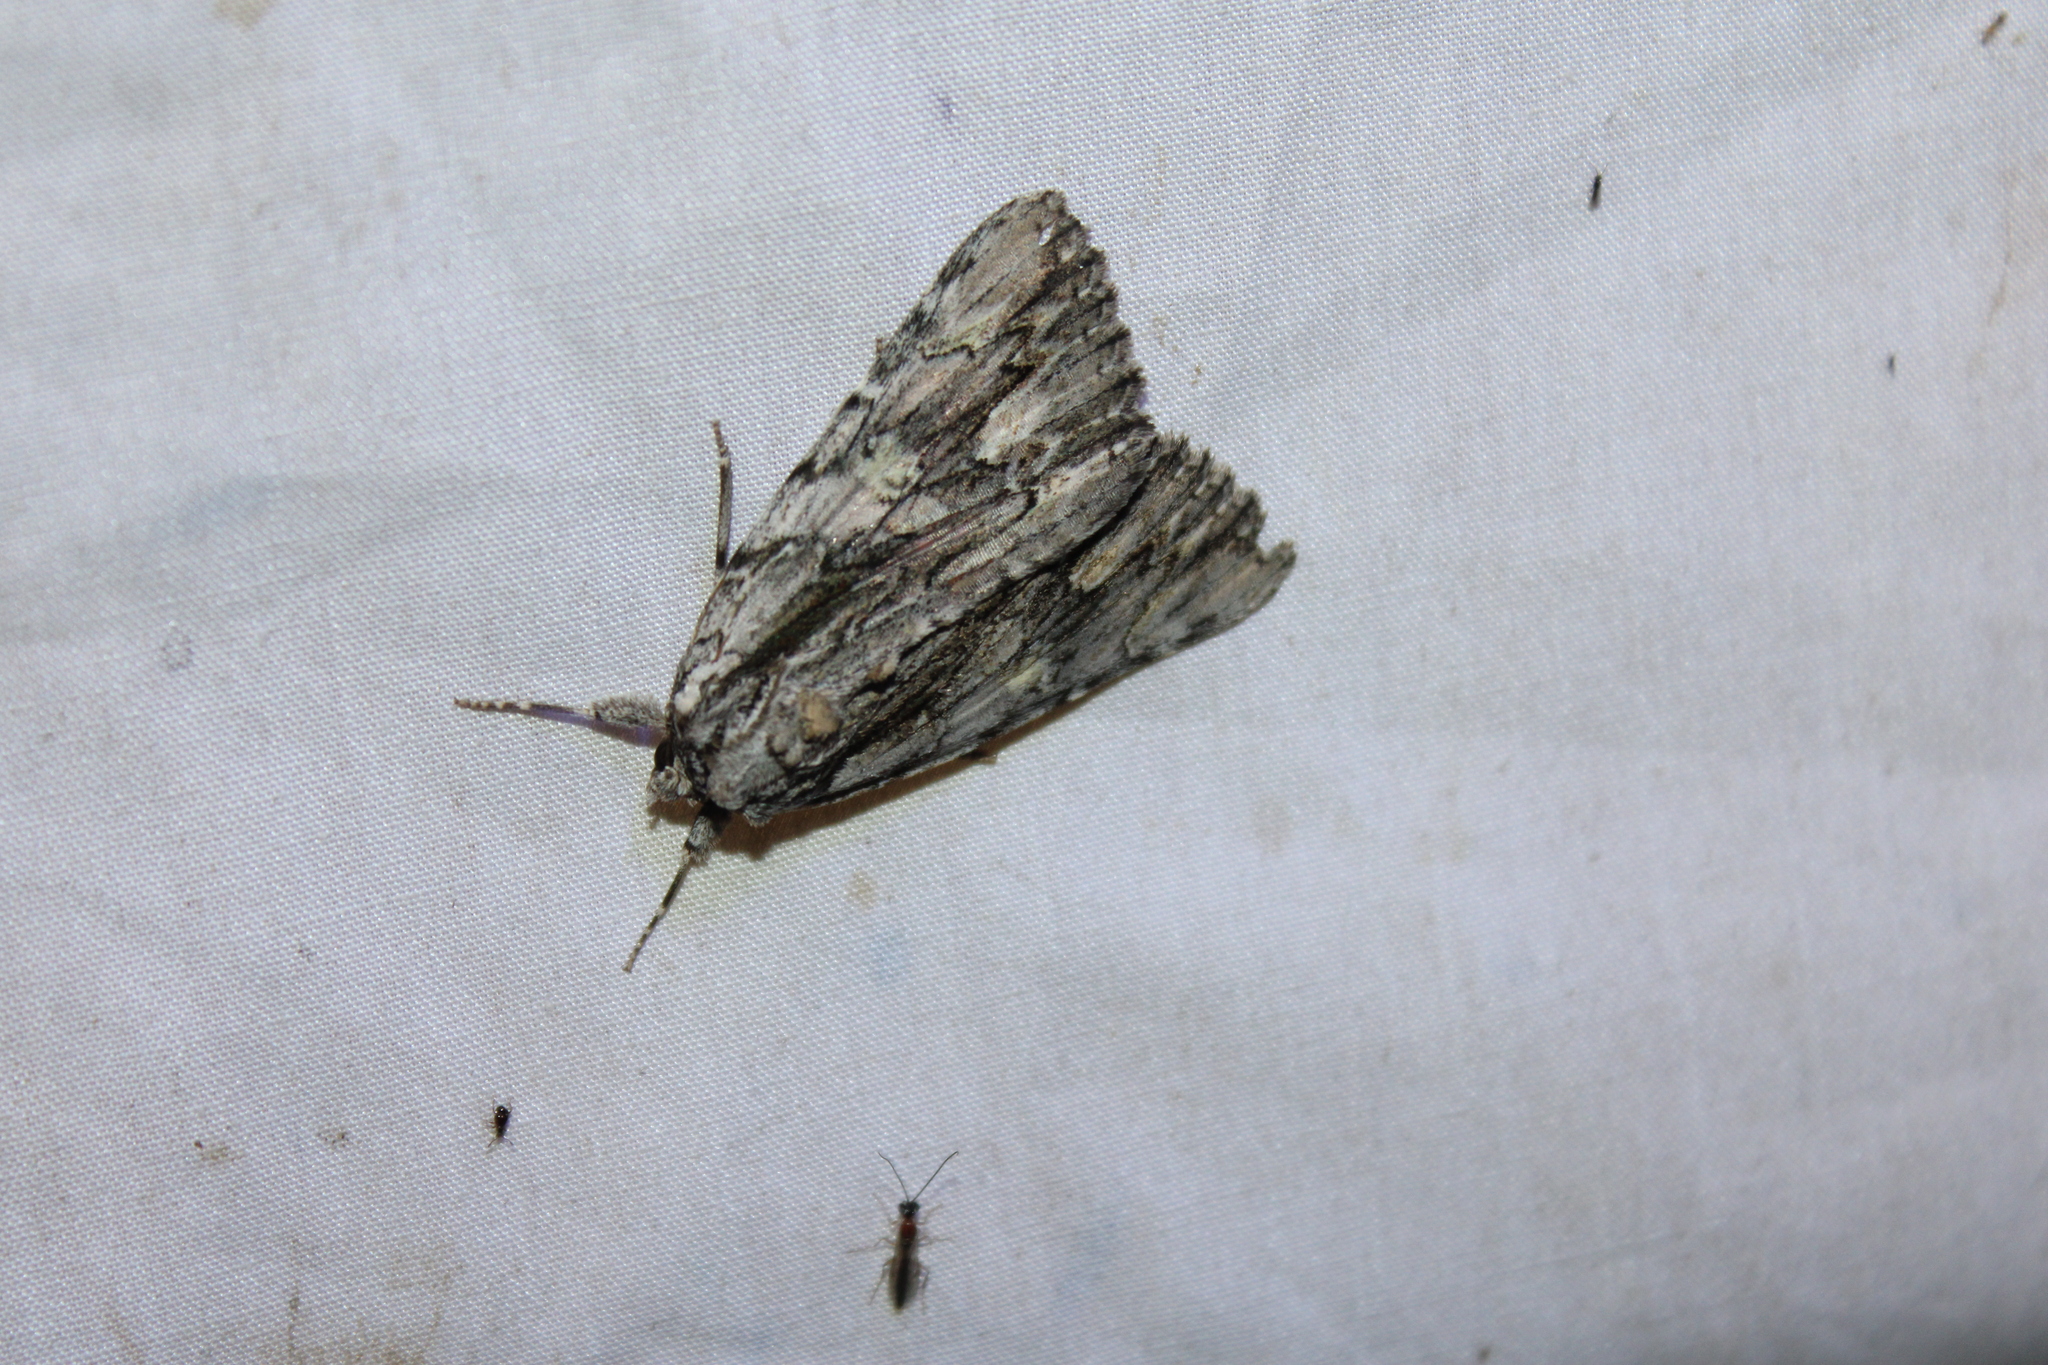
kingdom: Animalia
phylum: Arthropoda
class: Insecta
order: Lepidoptera
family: Erebidae
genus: Catocala
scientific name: Catocala coccinata
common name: Scarlet underwing
